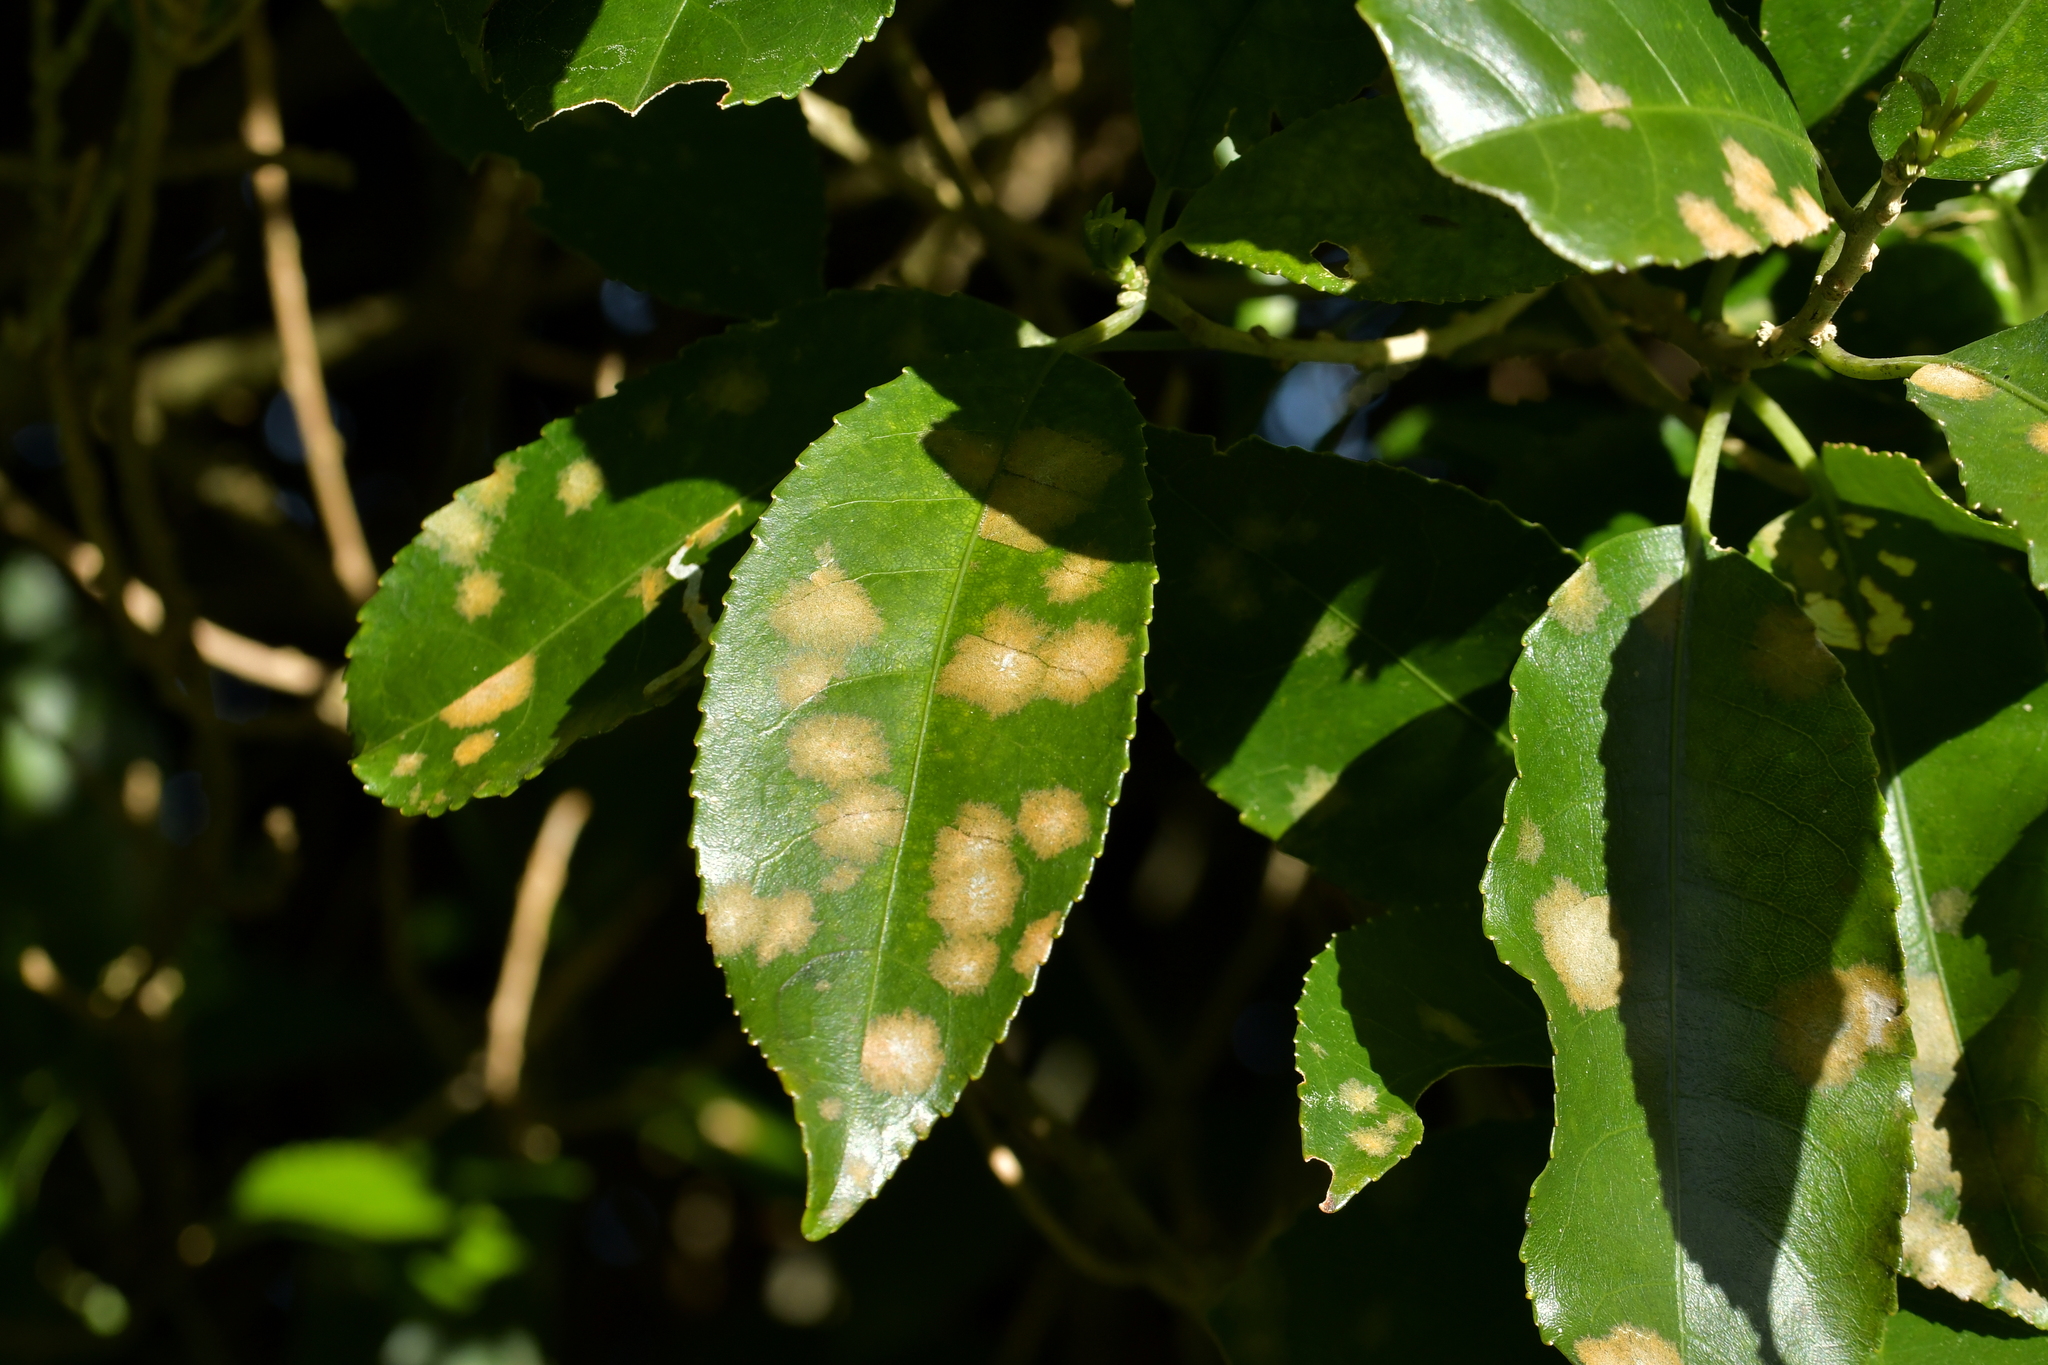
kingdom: Plantae
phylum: Chlorophyta
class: Ulvophyceae
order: Trentepohliales
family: Trentepohliaceae
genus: Cephaleuros
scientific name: Cephaleuros
